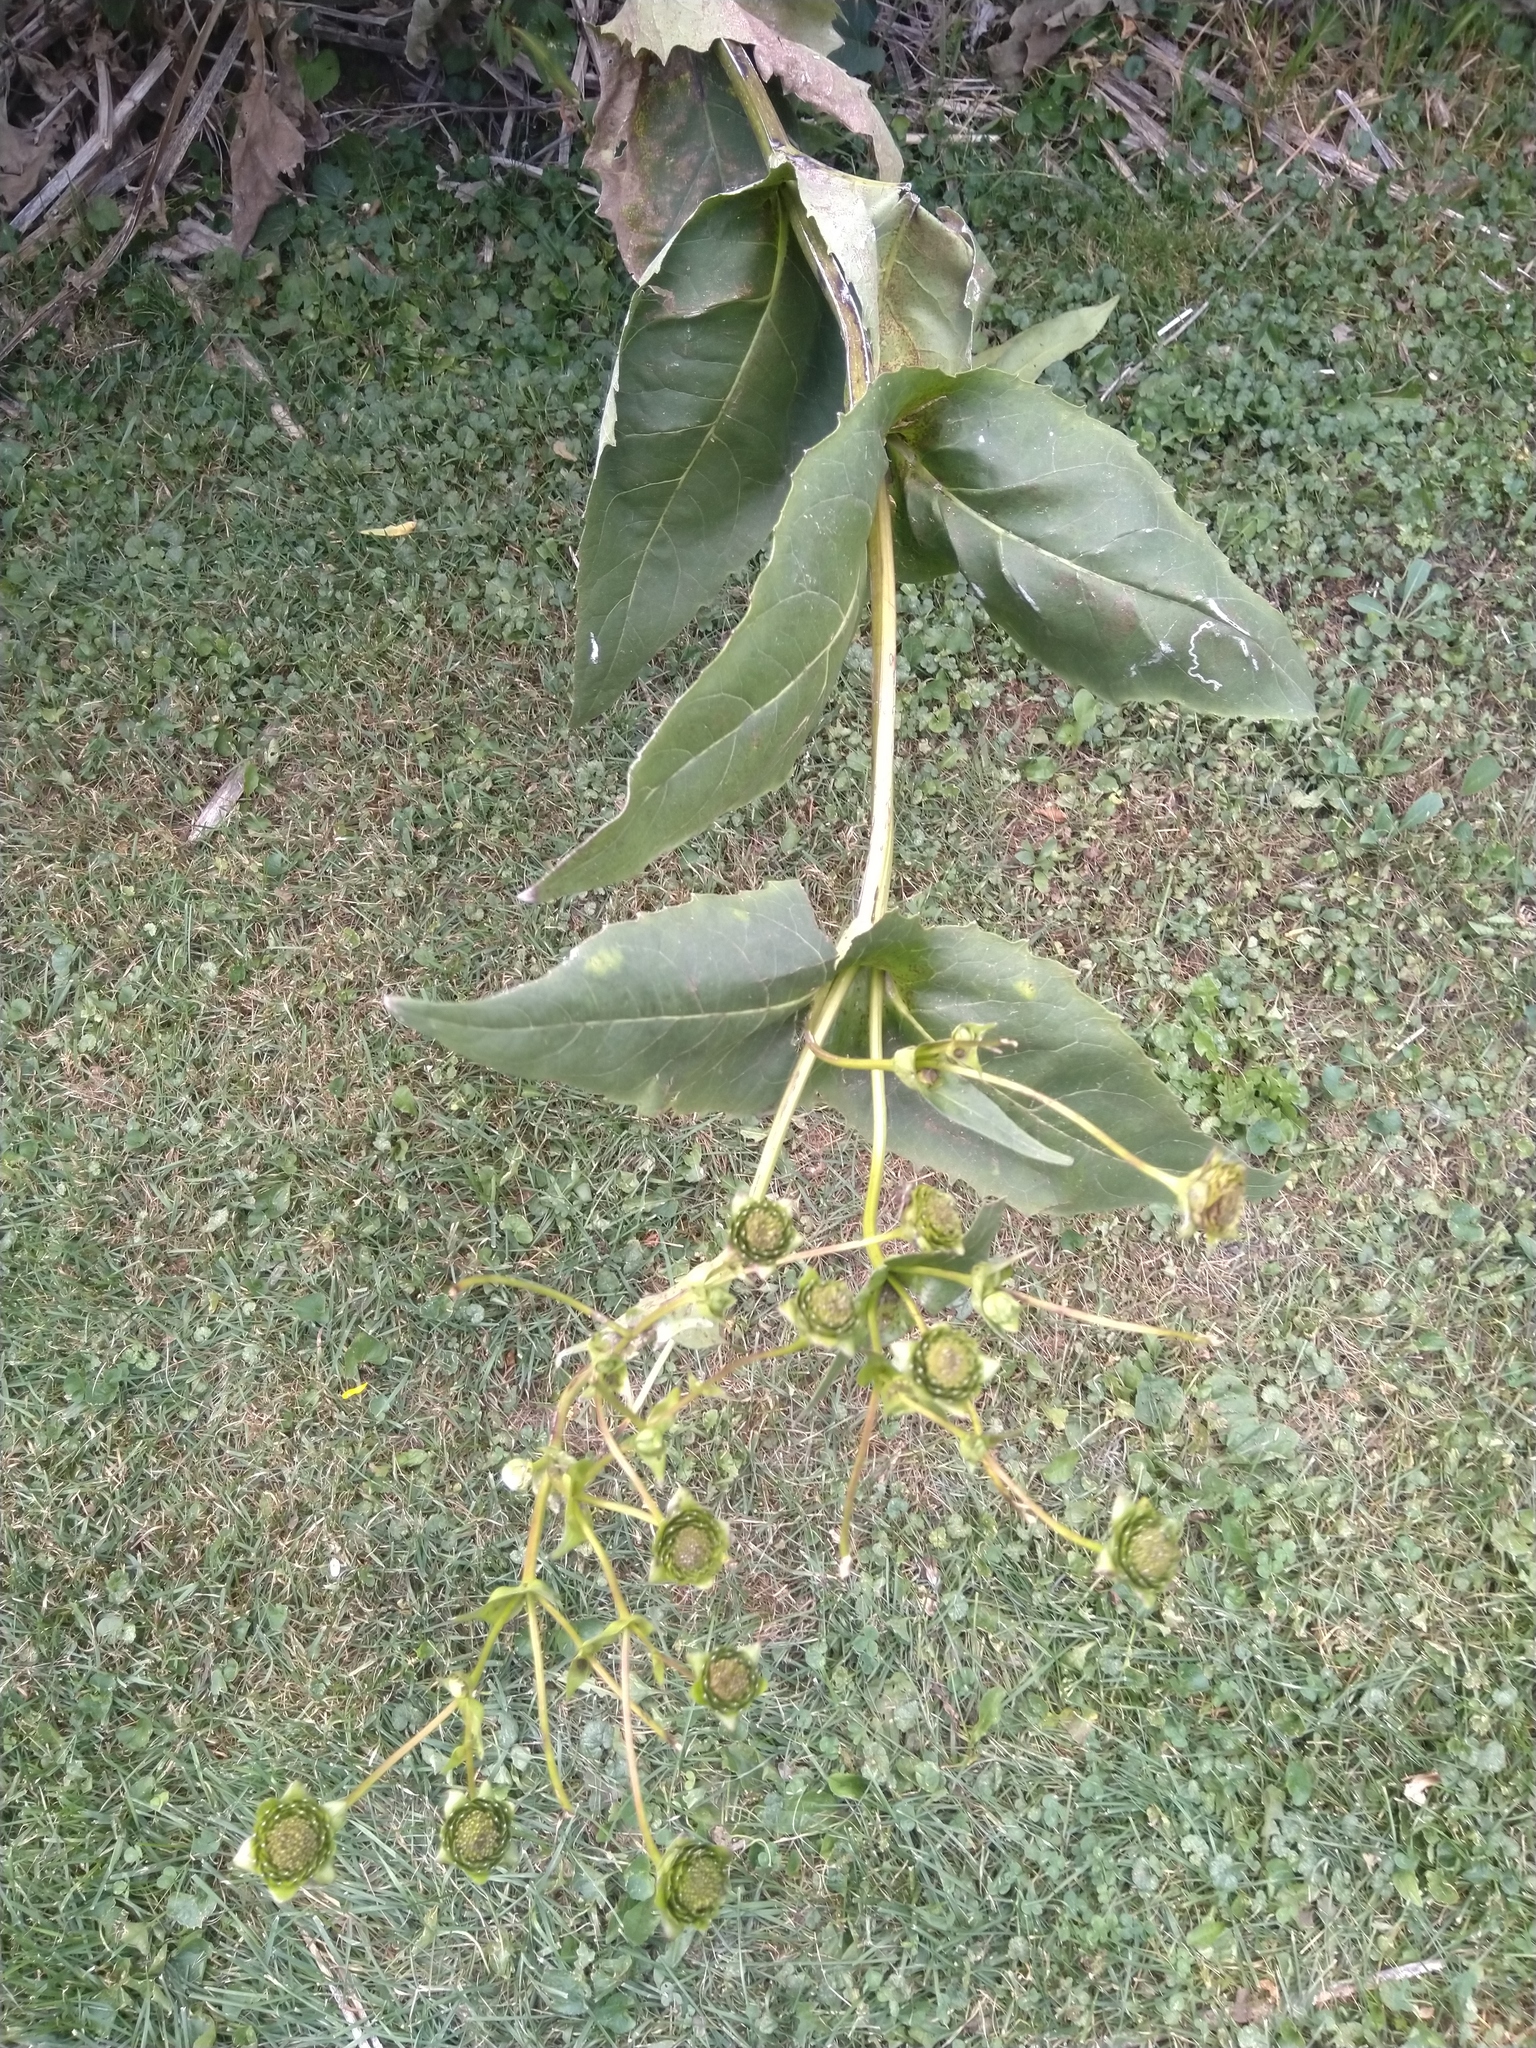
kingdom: Plantae
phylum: Tracheophyta
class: Magnoliopsida
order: Asterales
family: Asteraceae
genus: Silphium
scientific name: Silphium perfoliatum
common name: Cup-plant
